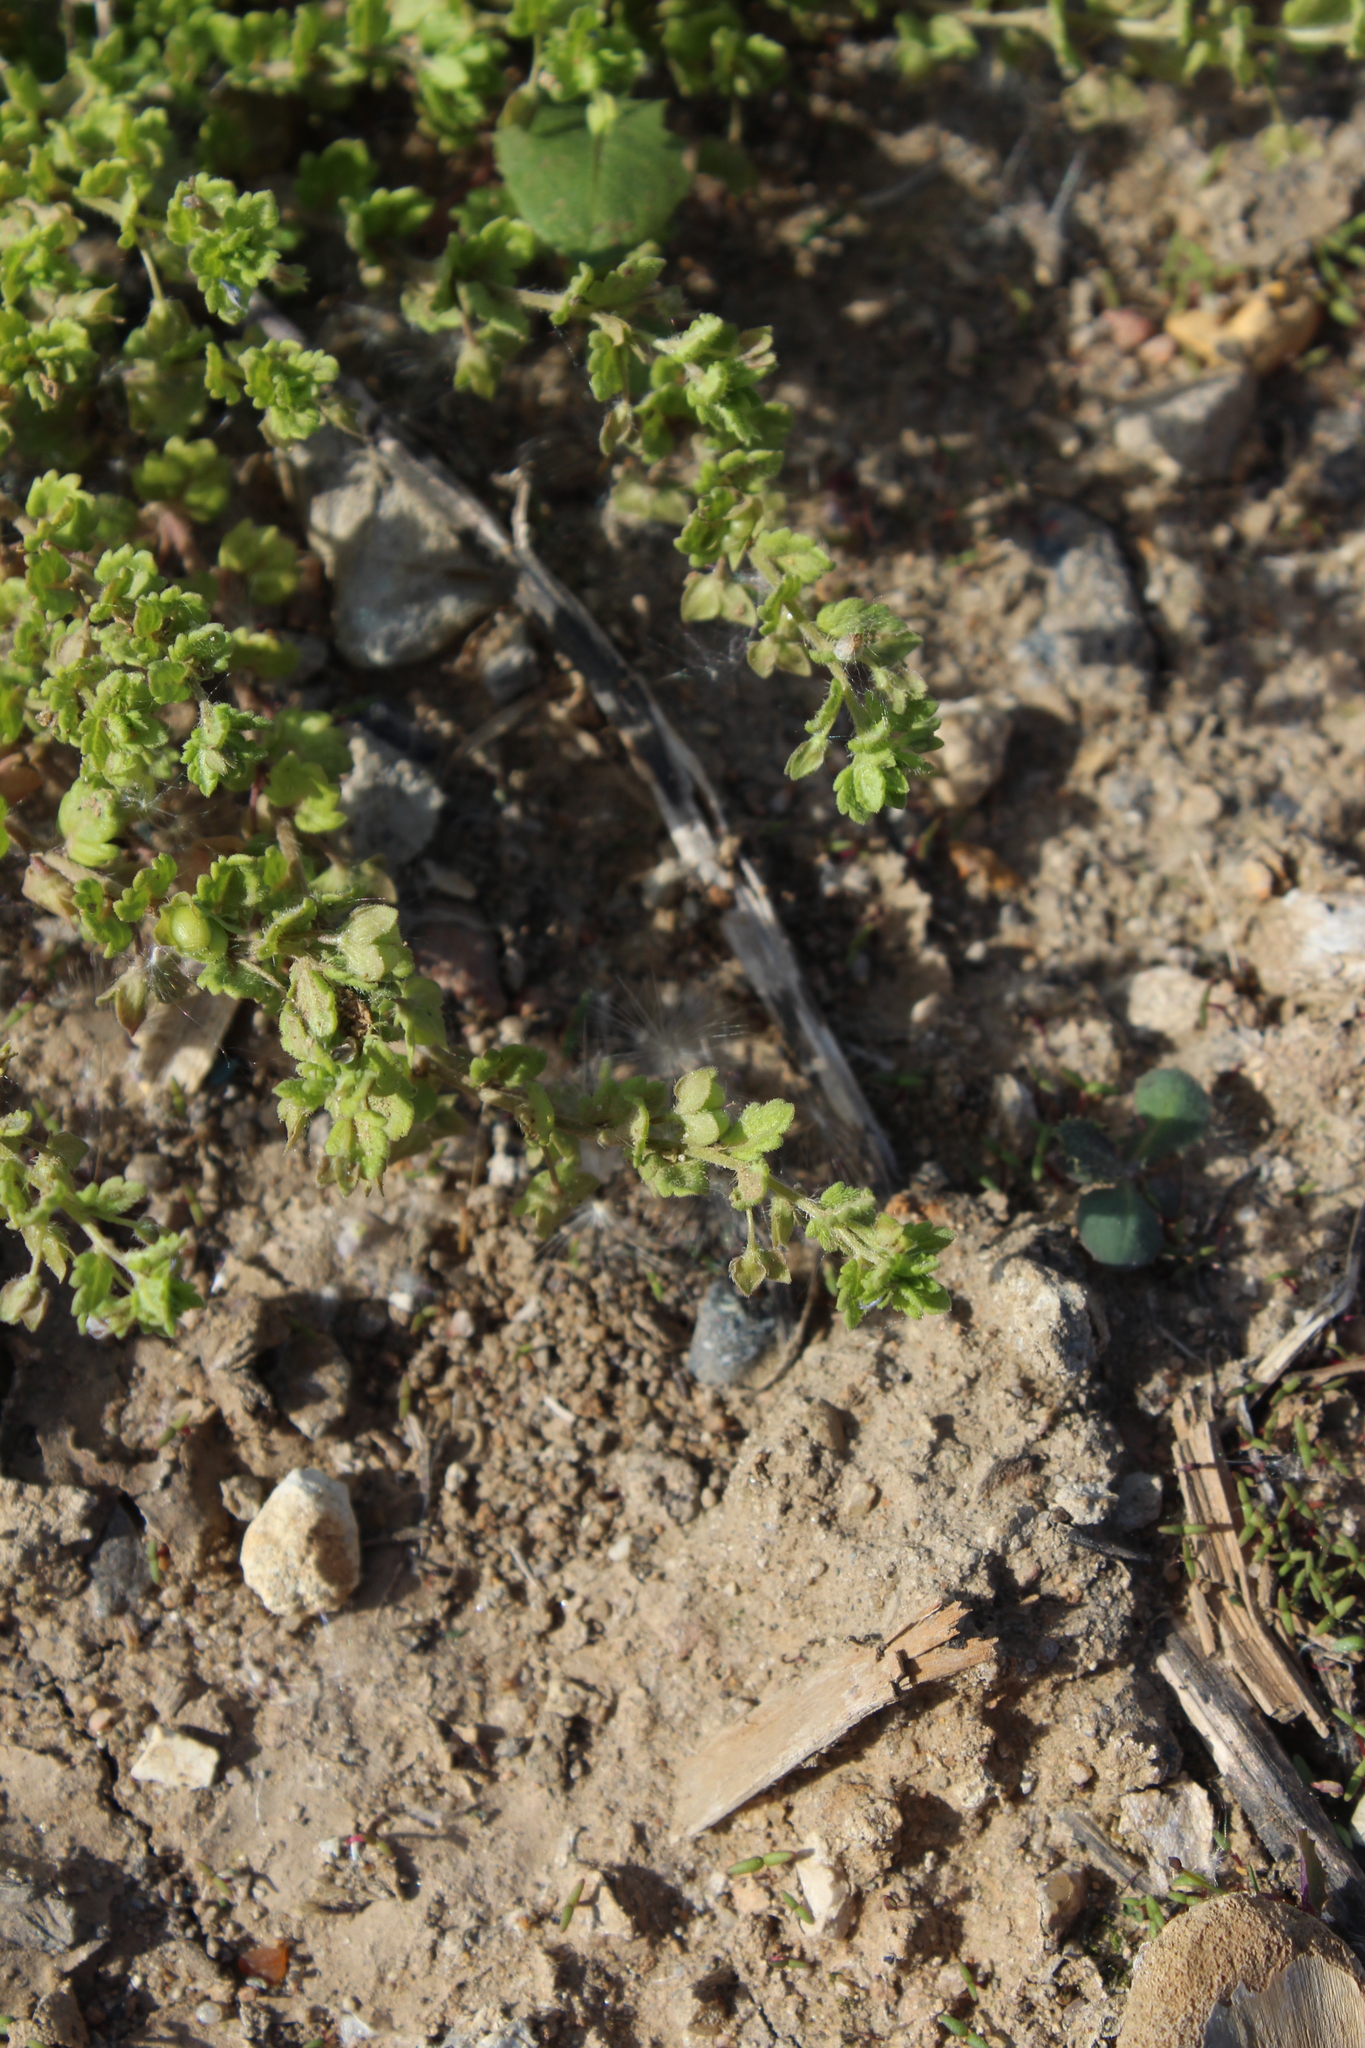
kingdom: Plantae
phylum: Tracheophyta
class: Magnoliopsida
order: Lamiales
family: Plantaginaceae
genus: Veronica
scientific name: Veronica polita
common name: Grey field-speedwell
